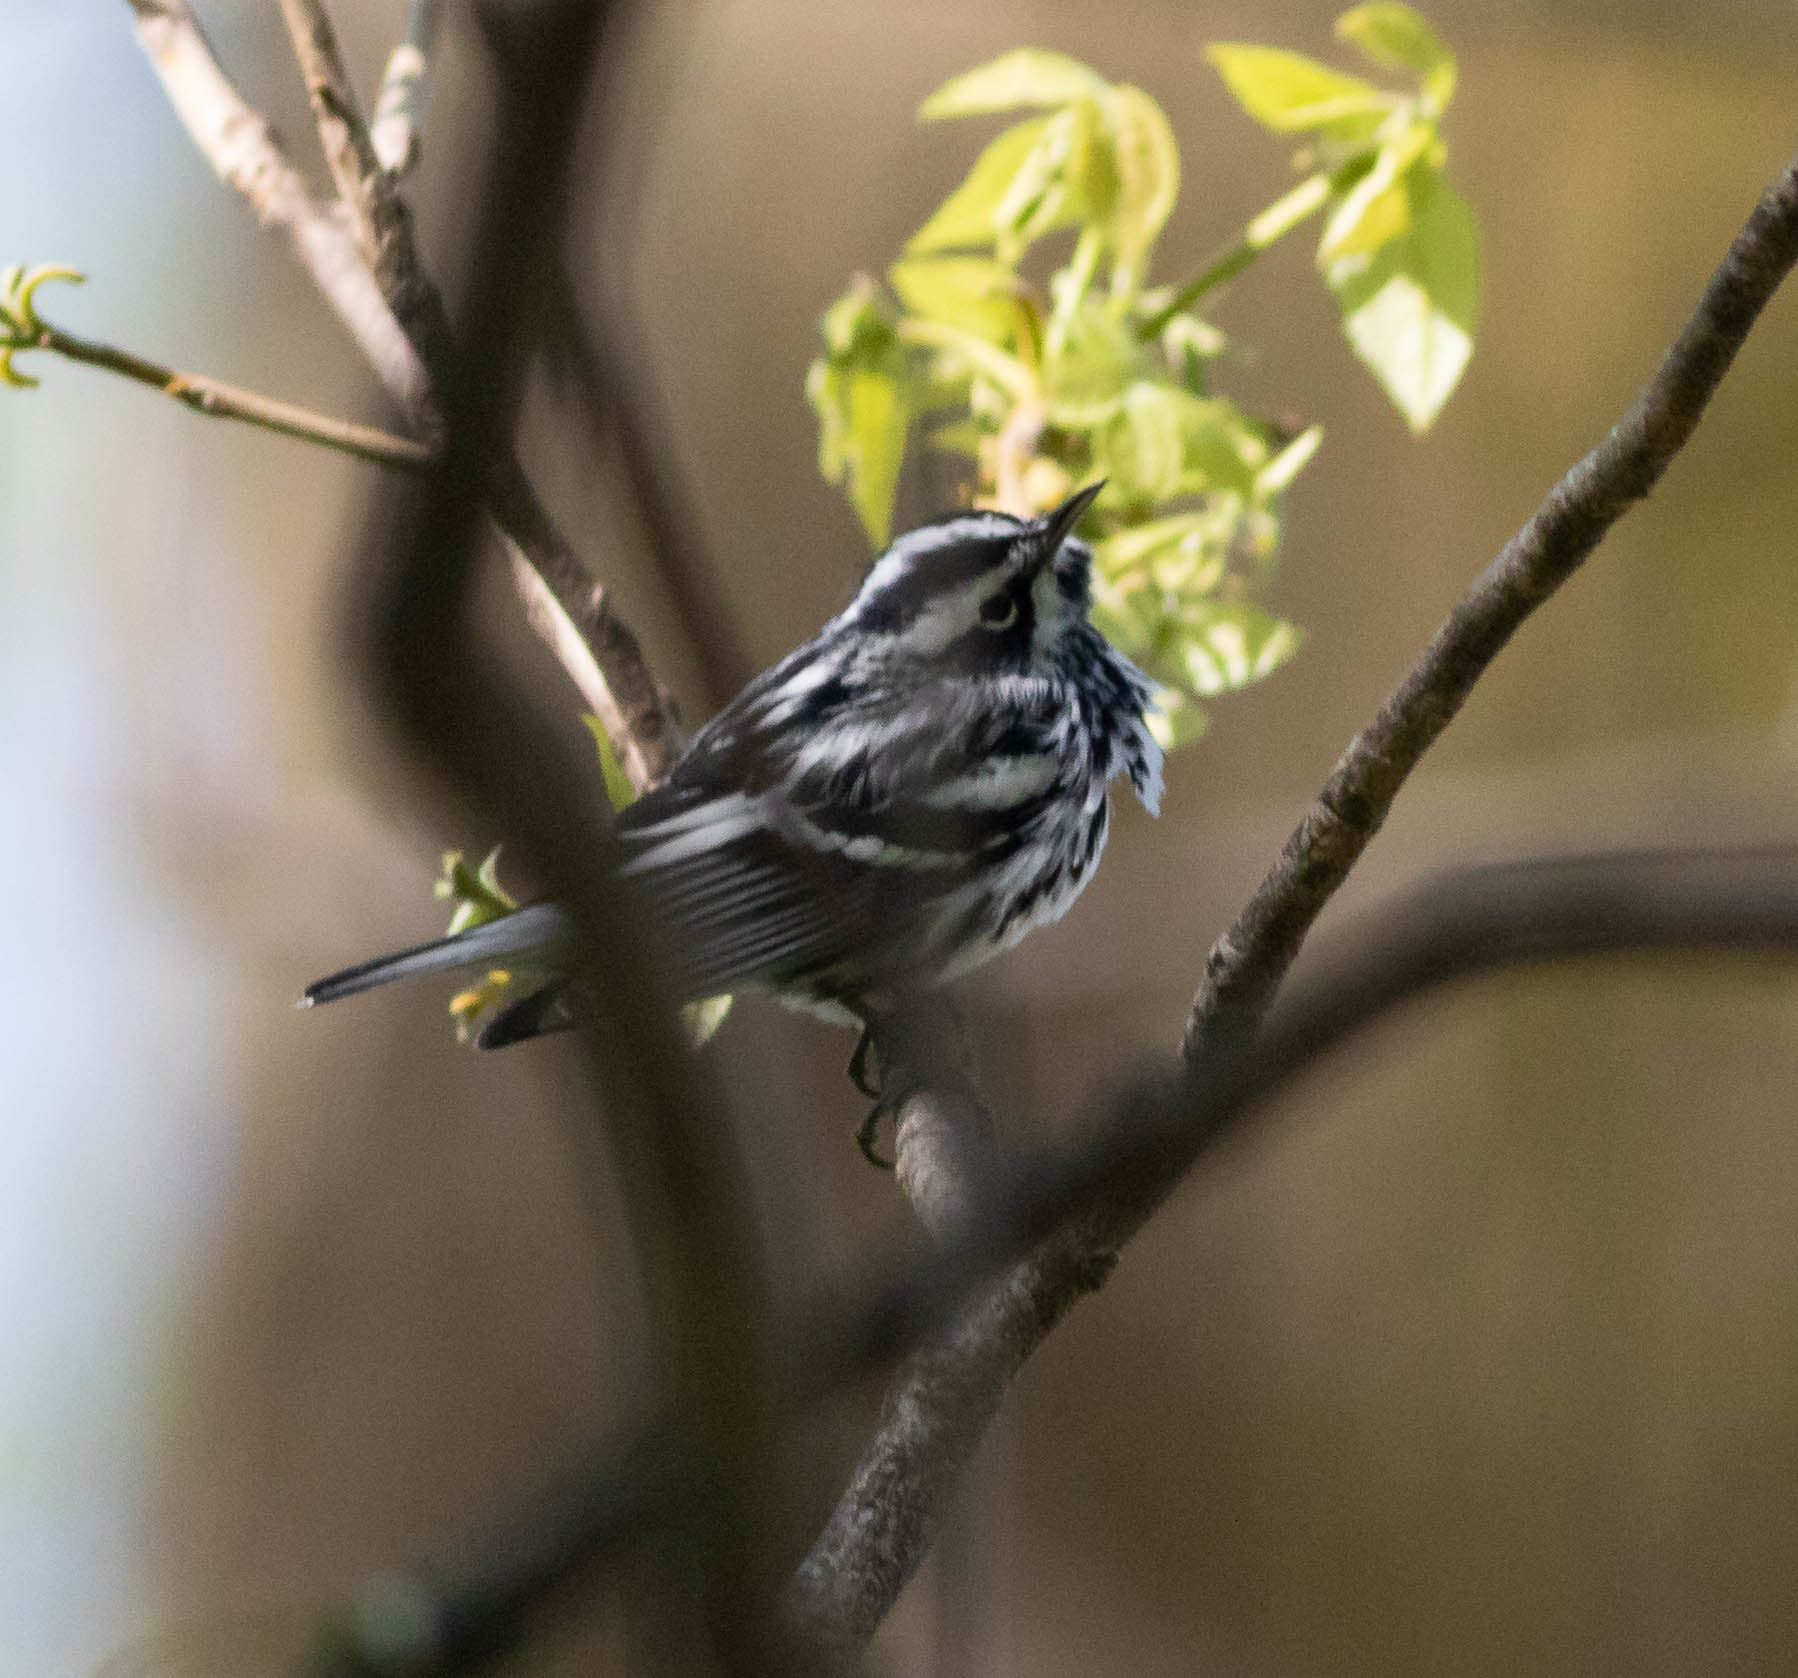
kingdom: Animalia
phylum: Chordata
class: Aves
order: Passeriformes
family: Parulidae
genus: Mniotilta
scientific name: Mniotilta varia
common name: Black-and-white warbler
